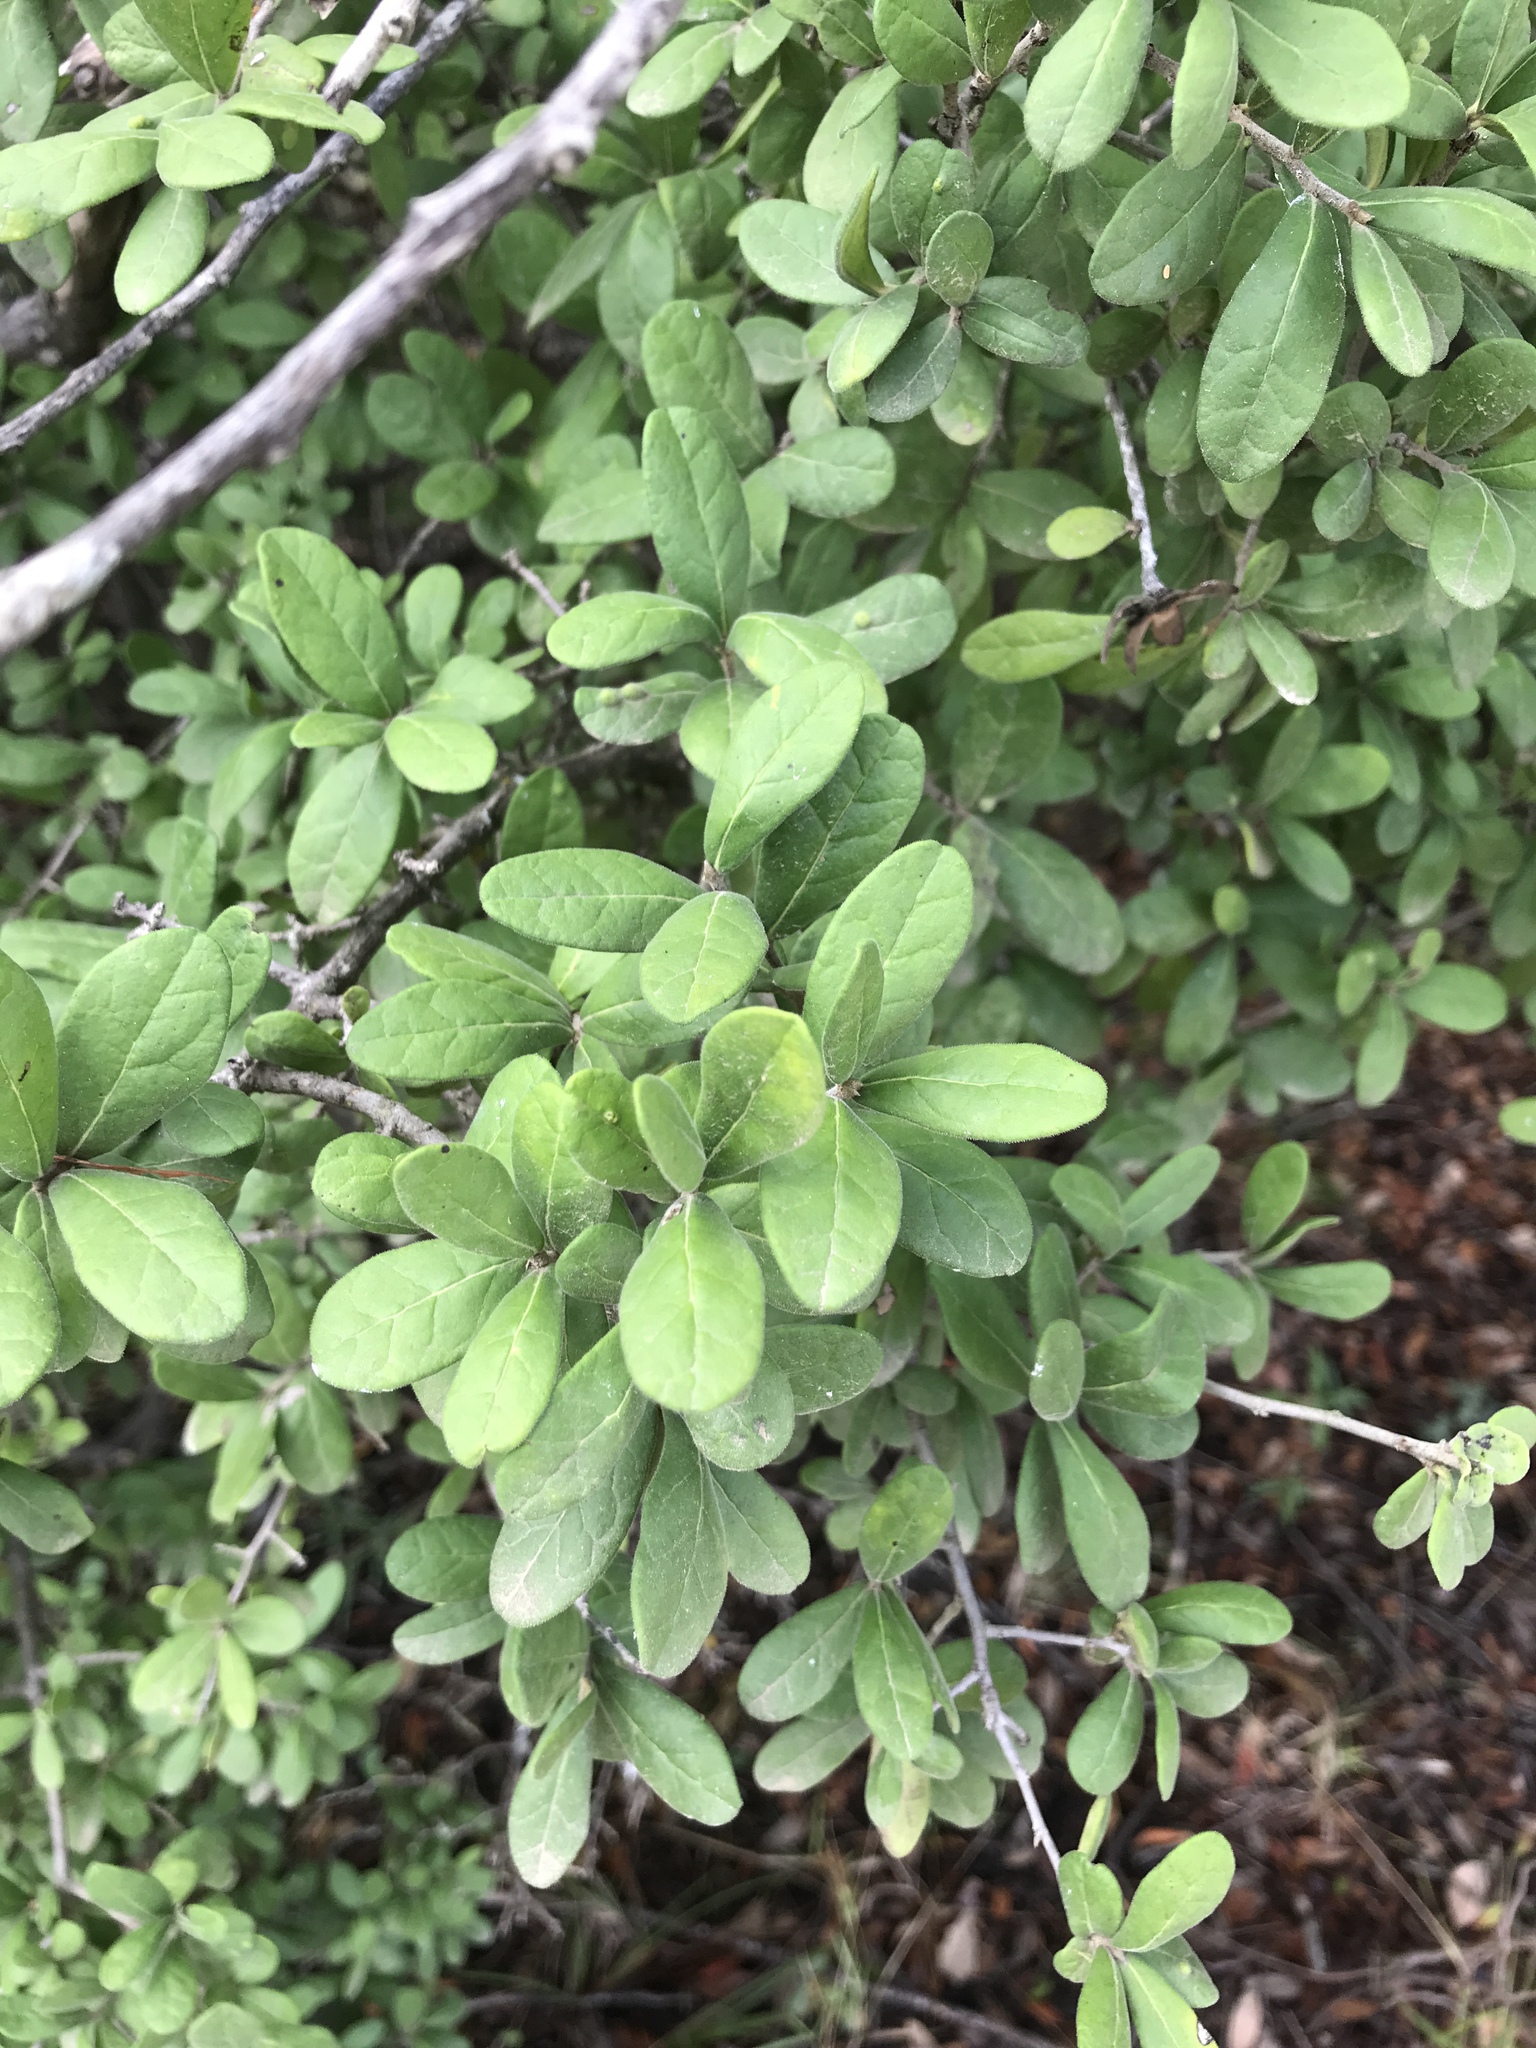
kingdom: Plantae
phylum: Tracheophyta
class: Magnoliopsida
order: Ericales
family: Ebenaceae
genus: Diospyros
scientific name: Diospyros texana
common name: Texas persimmon
